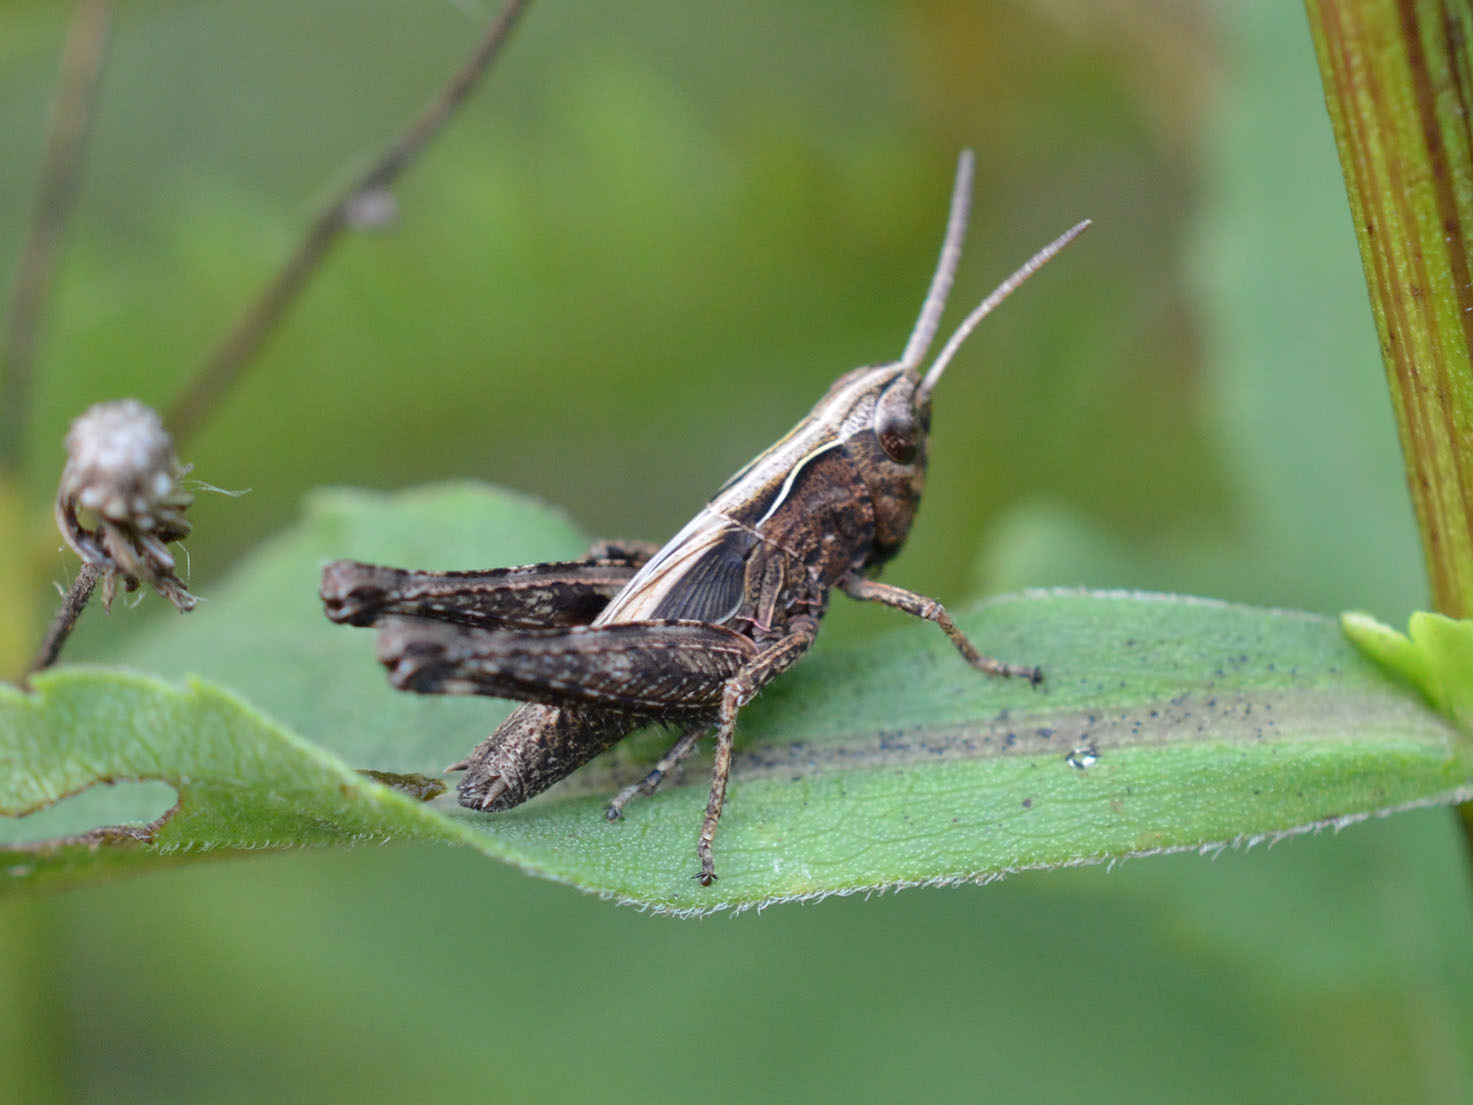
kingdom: Animalia
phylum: Arthropoda
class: Insecta
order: Orthoptera
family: Acrididae
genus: Omocestus
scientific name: Omocestus rufipes
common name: Woodland grasshopper
